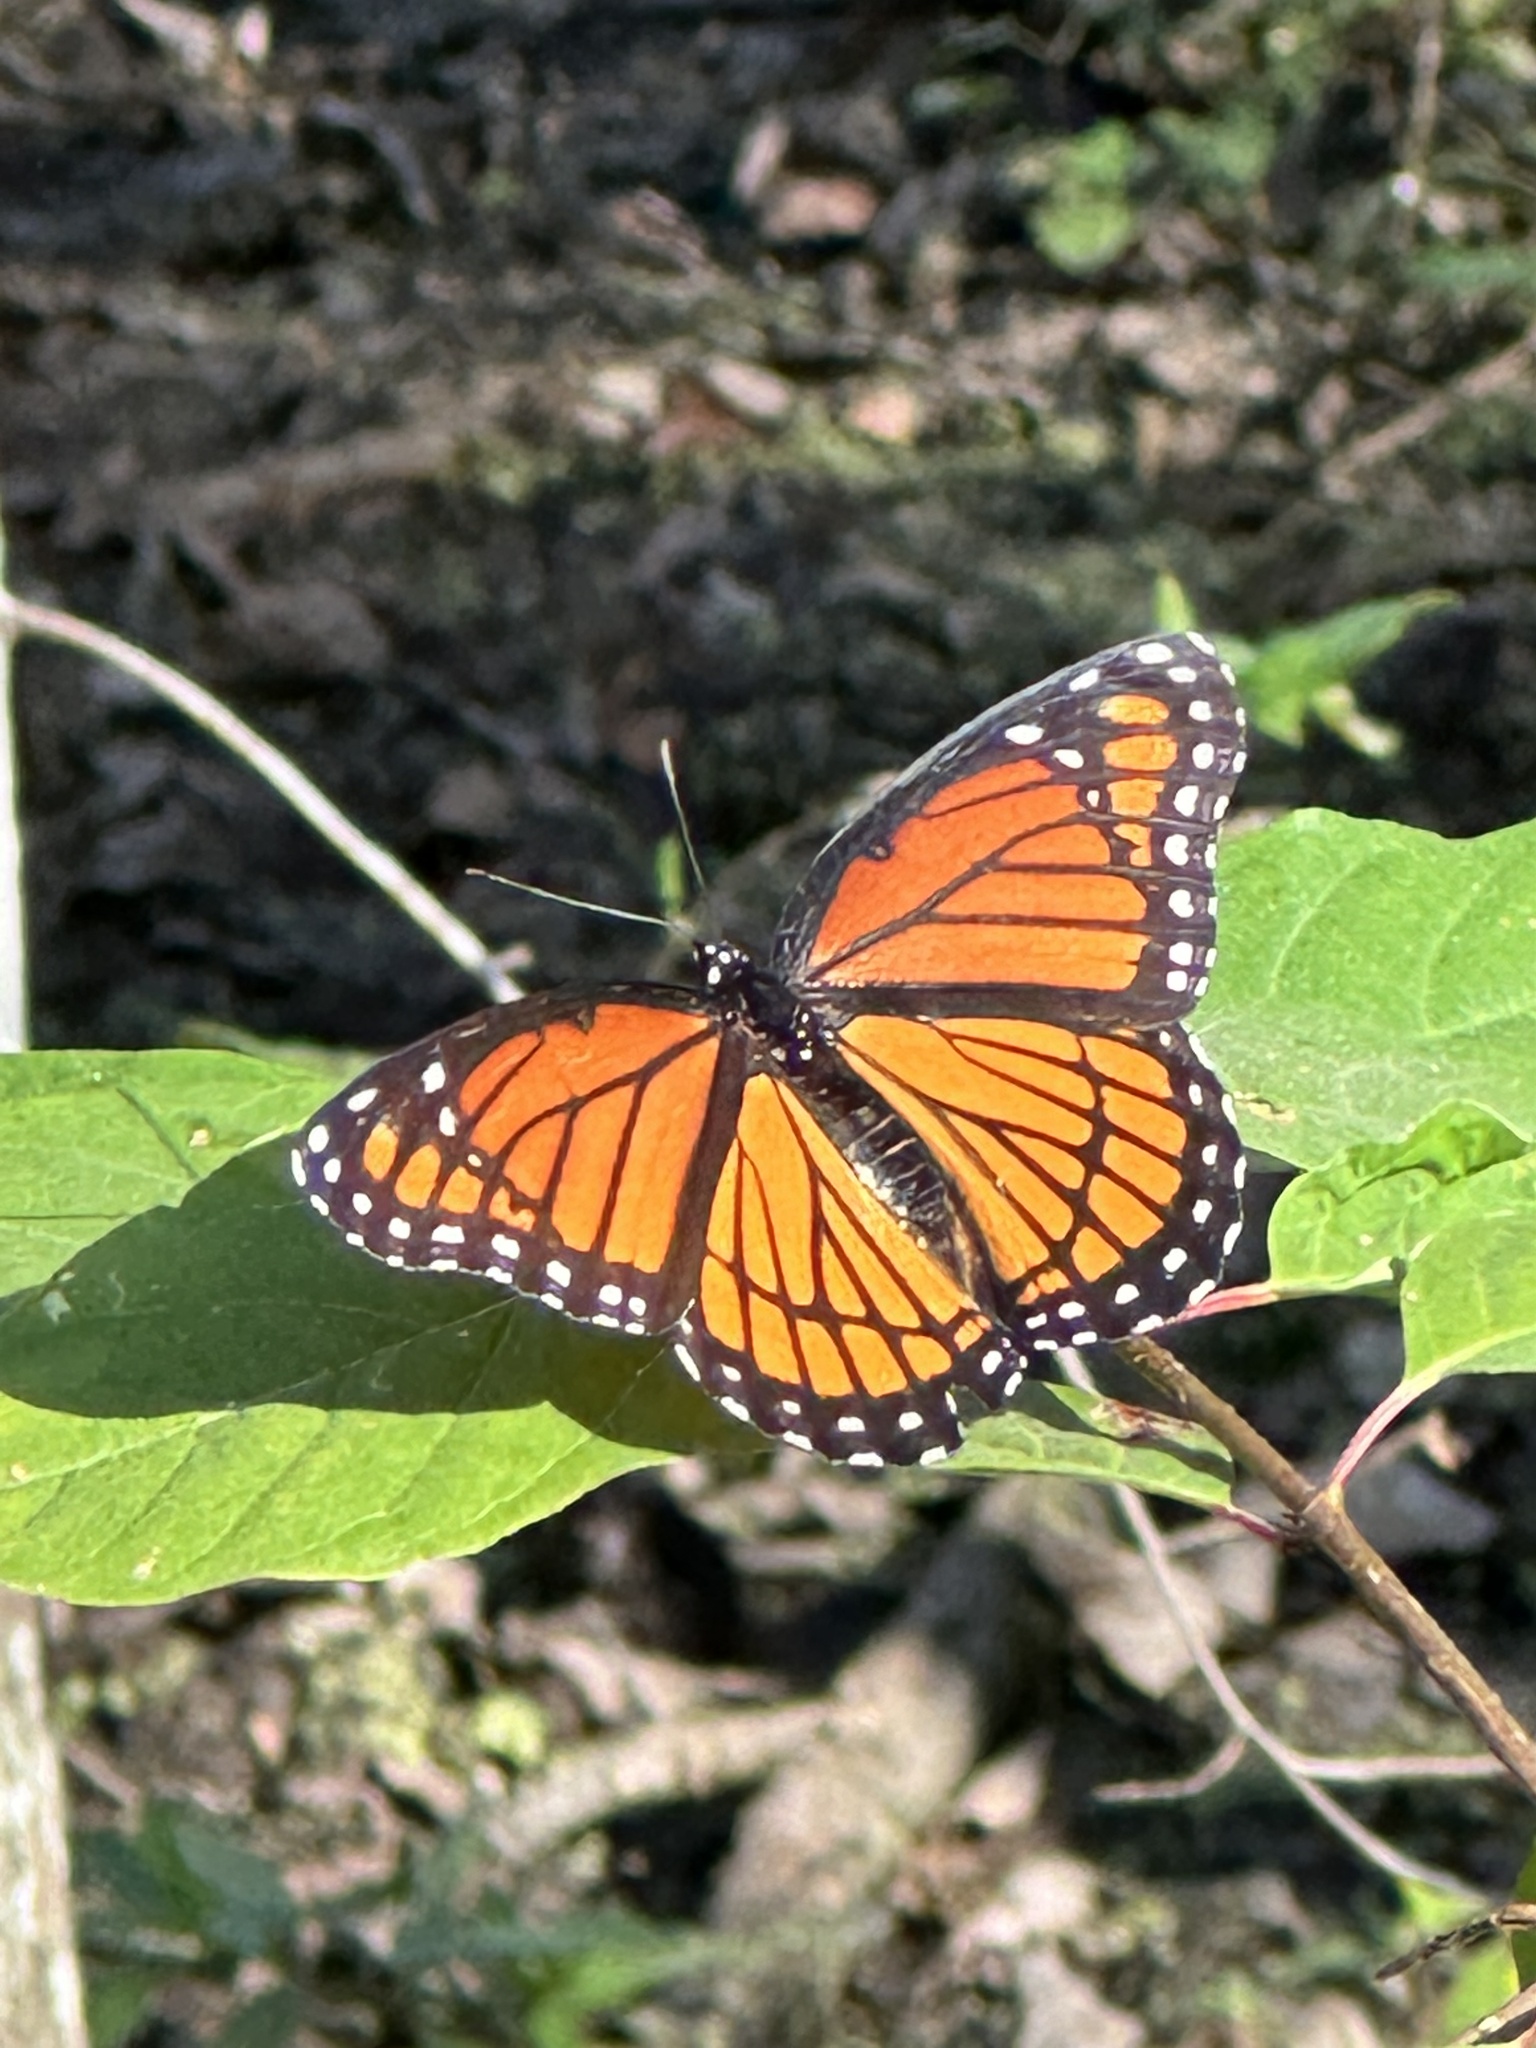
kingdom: Animalia
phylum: Arthropoda
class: Insecta
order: Lepidoptera
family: Nymphalidae
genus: Limenitis
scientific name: Limenitis archippus
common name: Viceroy
